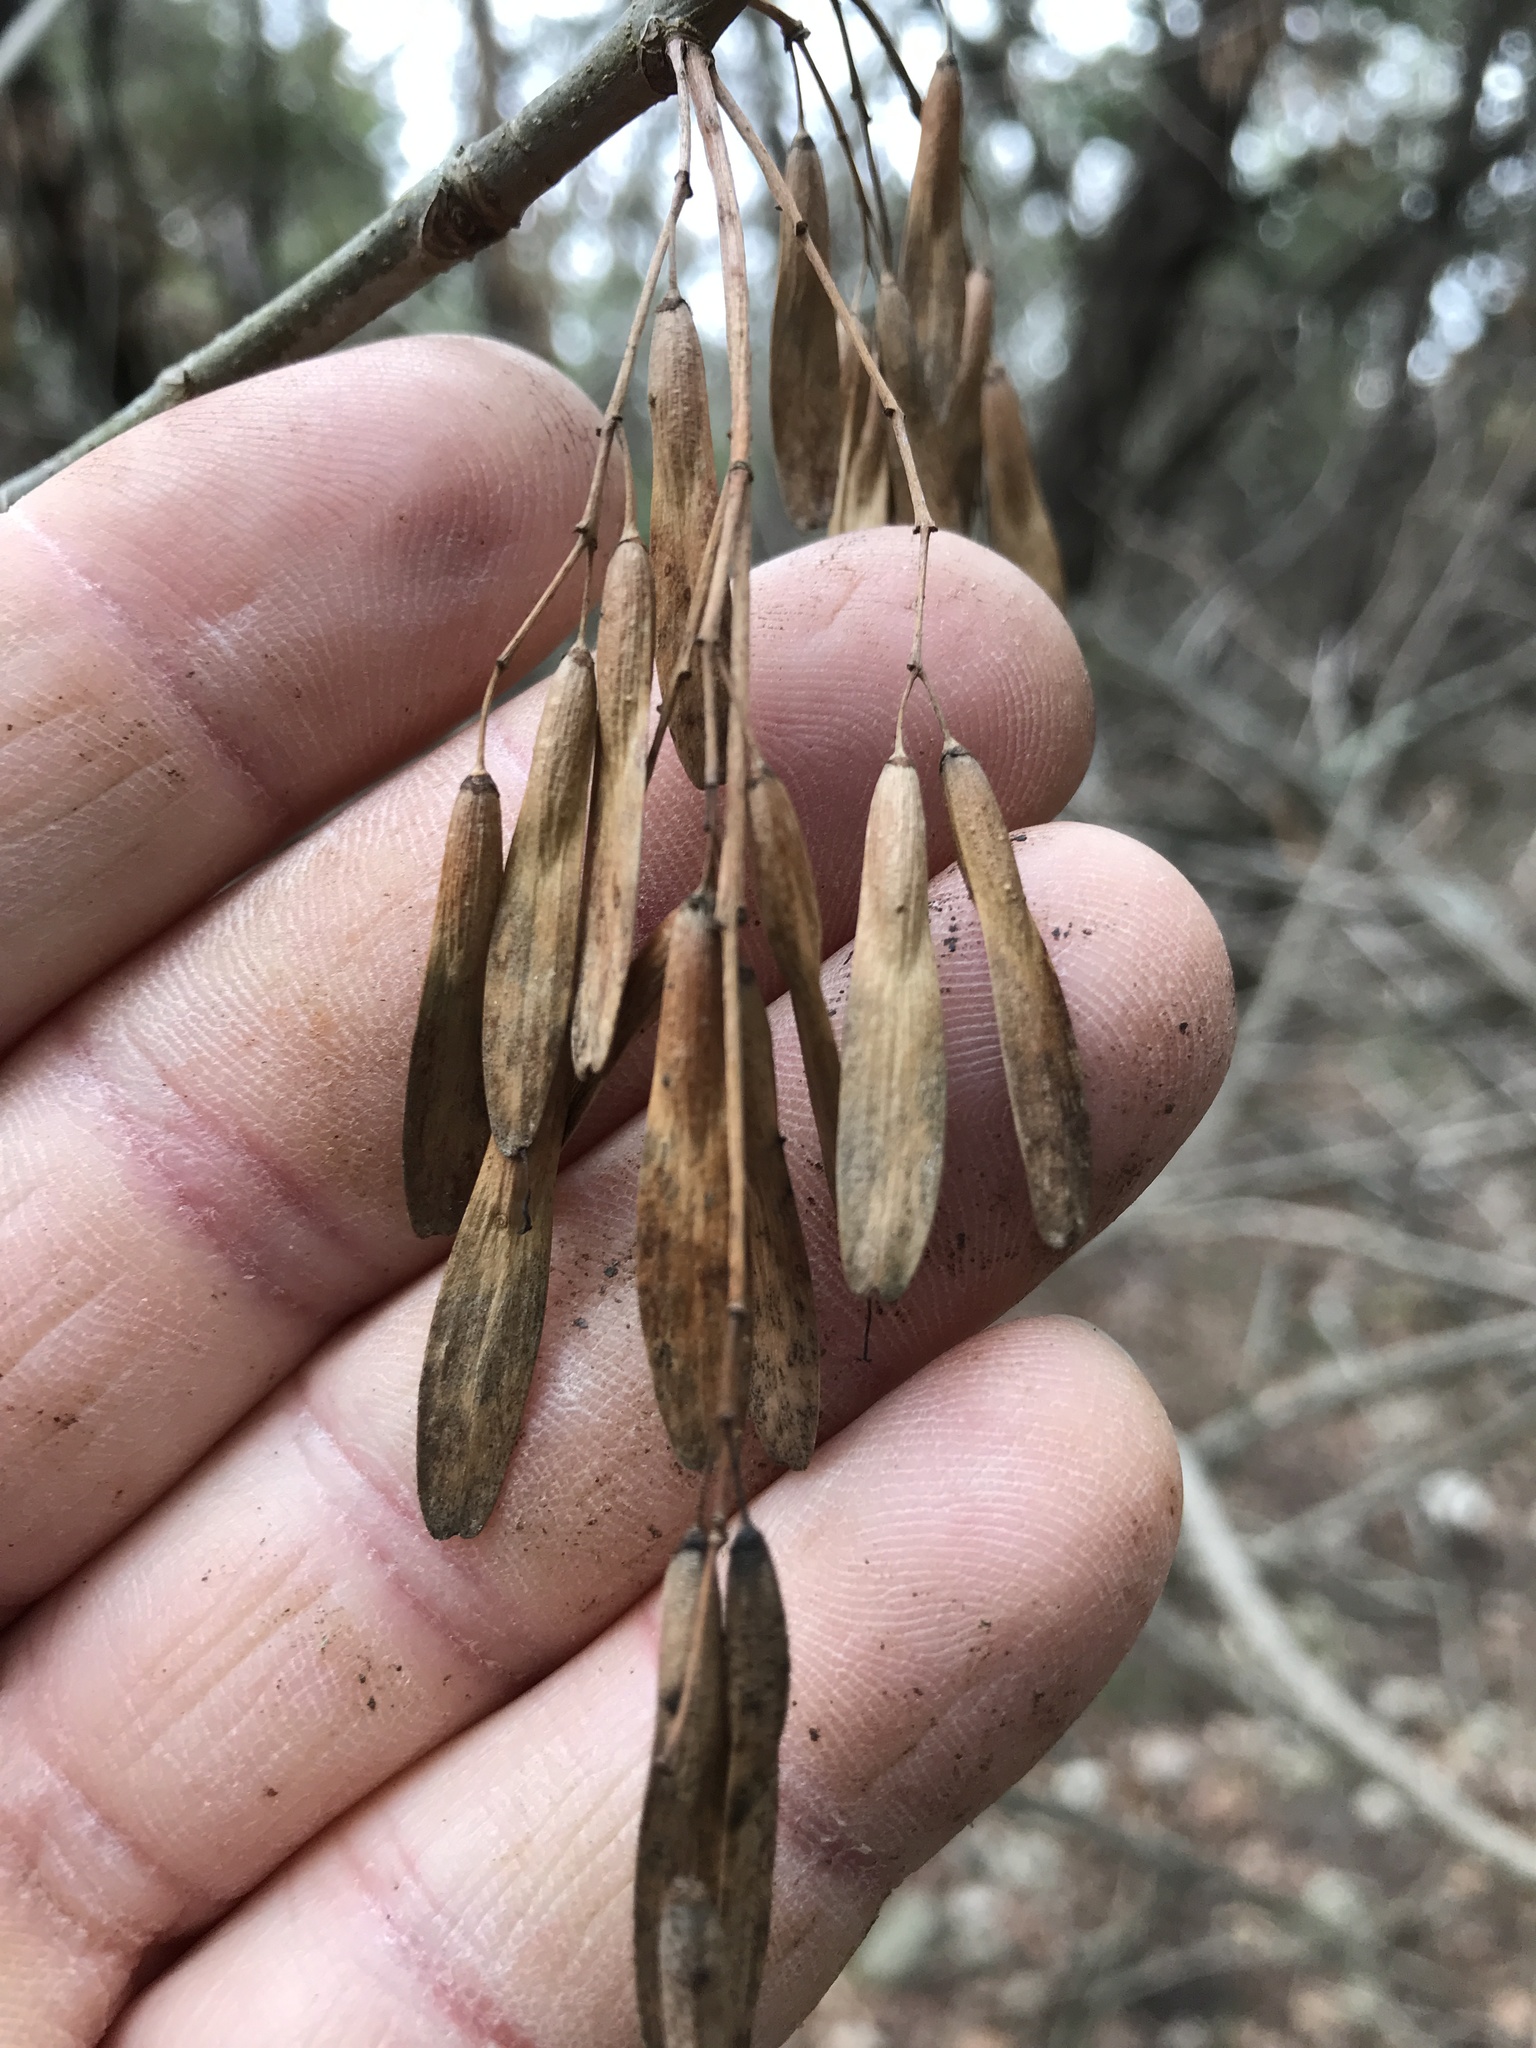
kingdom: Plantae
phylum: Tracheophyta
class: Magnoliopsida
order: Lamiales
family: Oleaceae
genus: Fraxinus
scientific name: Fraxinus albicans
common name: Texas ash
